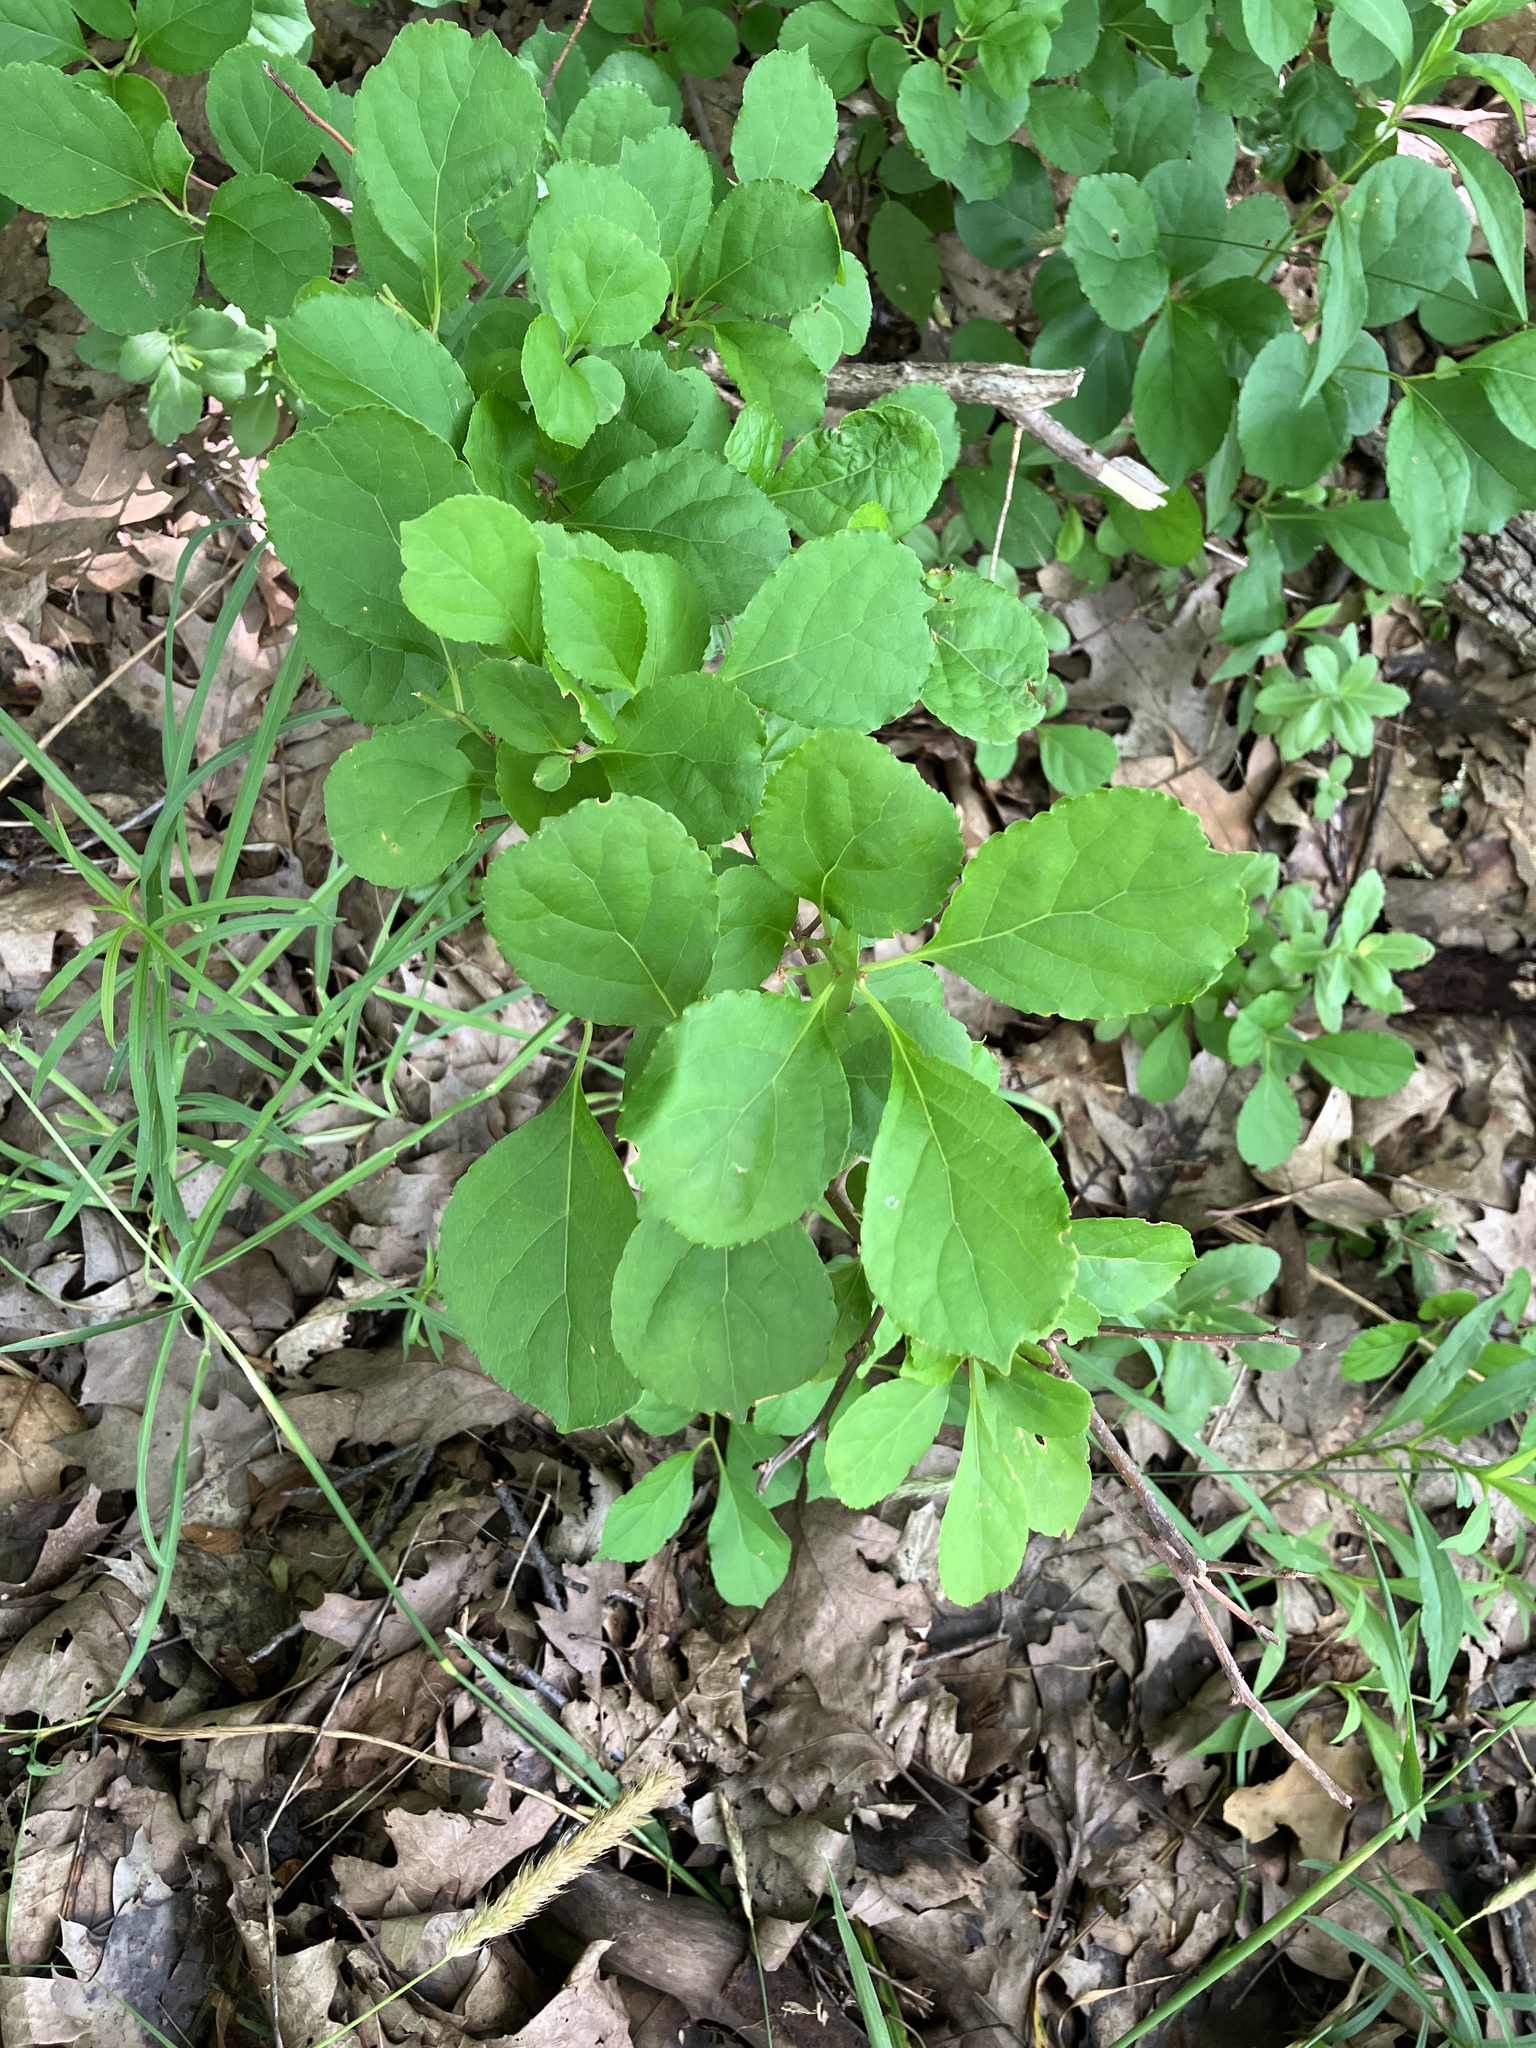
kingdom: Plantae
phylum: Tracheophyta
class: Magnoliopsida
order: Celastrales
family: Celastraceae
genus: Celastrus
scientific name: Celastrus orbiculatus
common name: Oriental bittersweet
